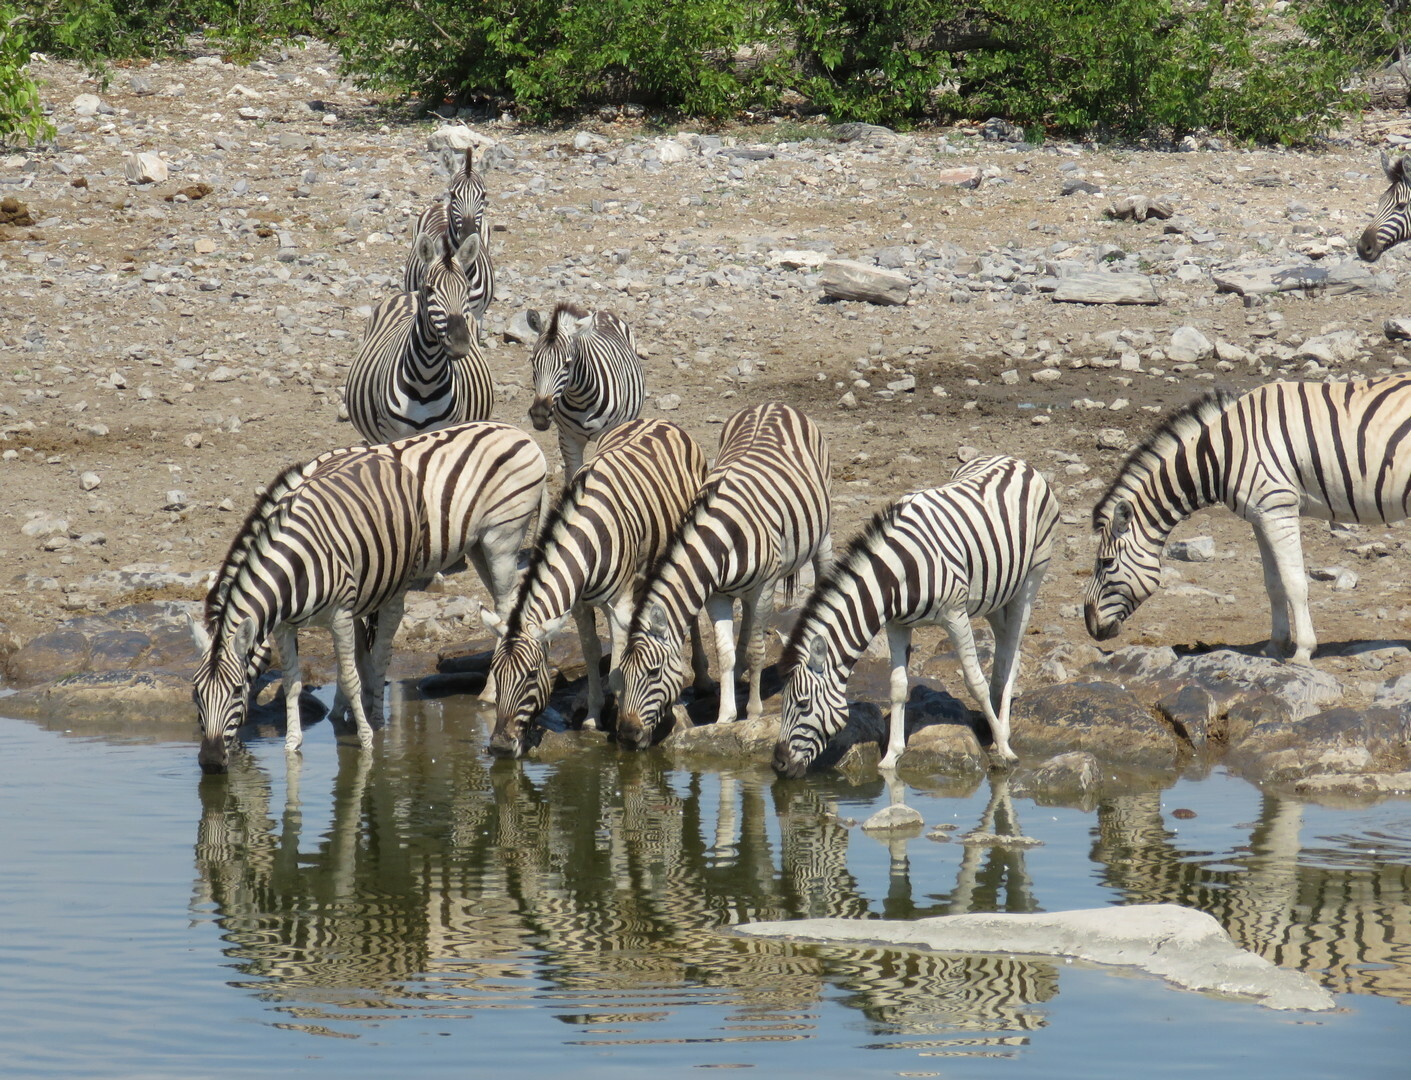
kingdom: Animalia
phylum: Chordata
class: Mammalia
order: Perissodactyla
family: Equidae
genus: Equus
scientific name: Equus quagga
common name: Plains zebra
